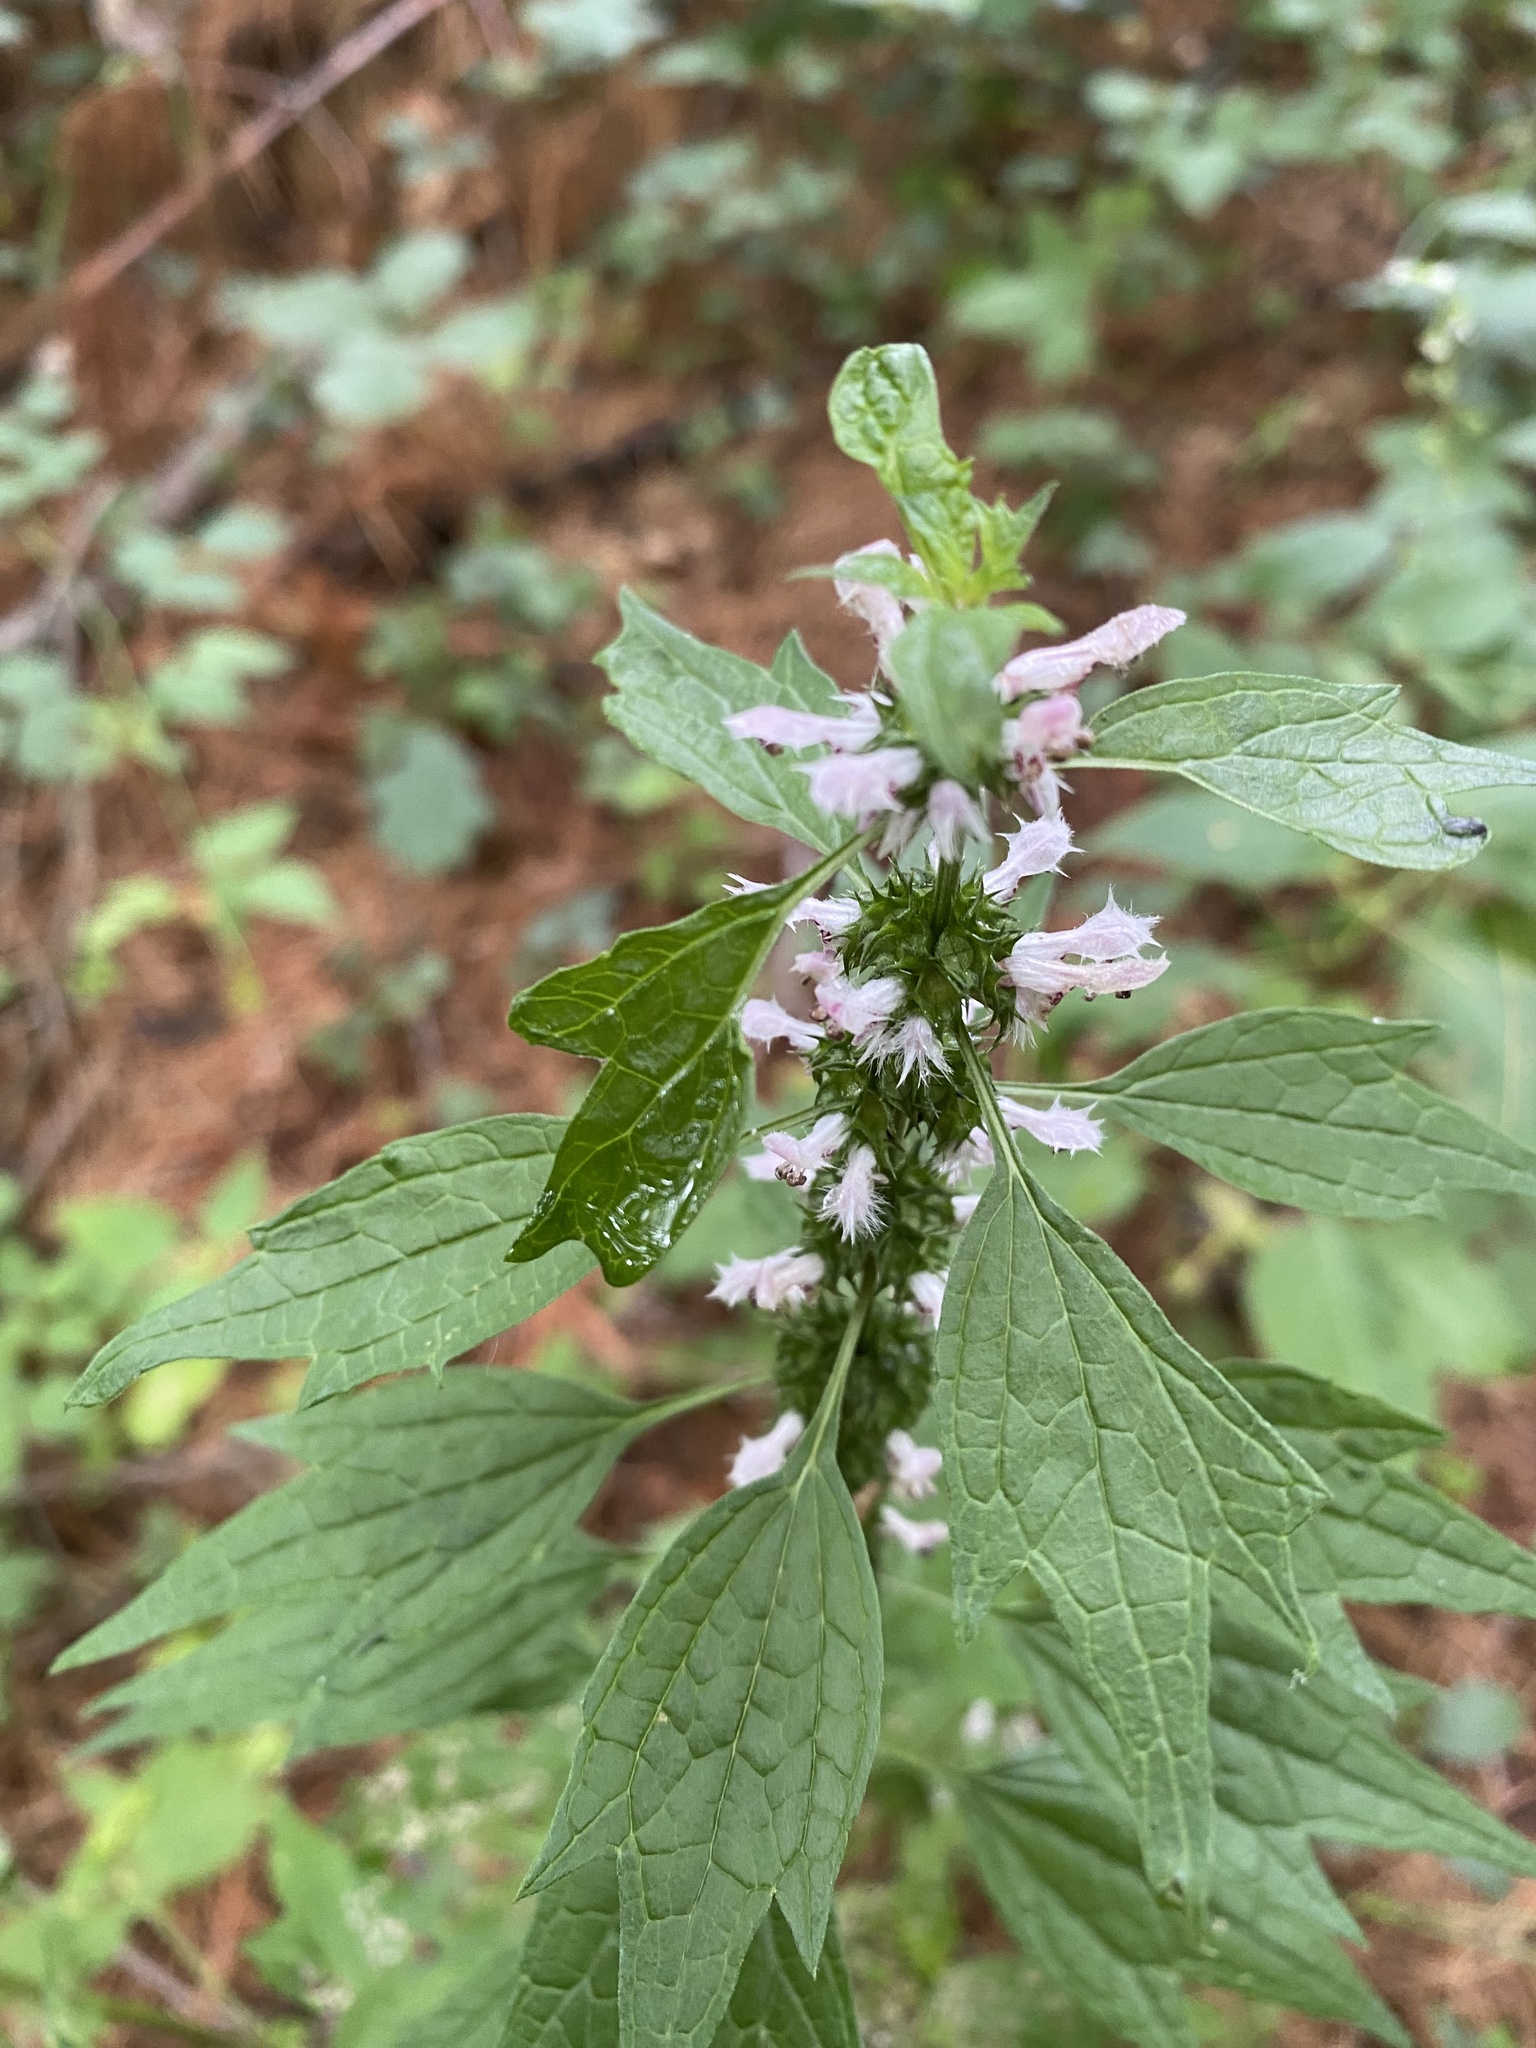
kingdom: Plantae
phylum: Tracheophyta
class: Magnoliopsida
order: Lamiales
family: Lamiaceae
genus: Leonurus
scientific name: Leonurus cardiaca
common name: Motherwort
